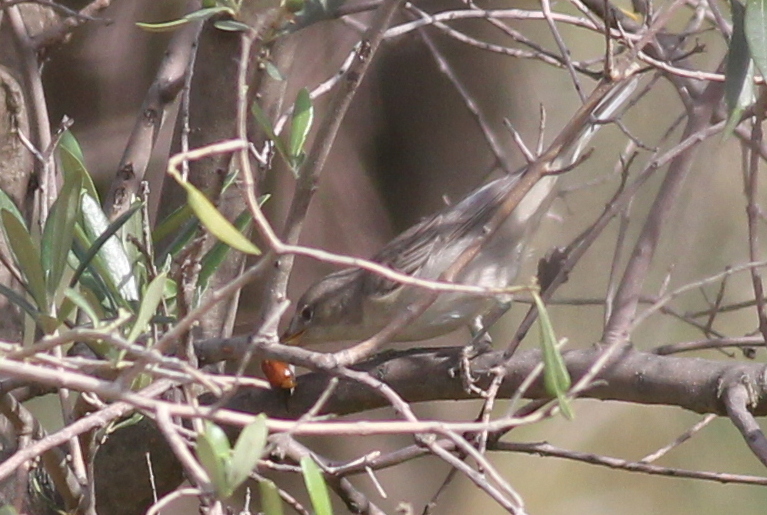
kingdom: Animalia
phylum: Chordata
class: Aves
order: Passeriformes
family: Acrocephalidae
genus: Hippolais
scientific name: Hippolais olivetorum
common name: Olive-tree warbler
